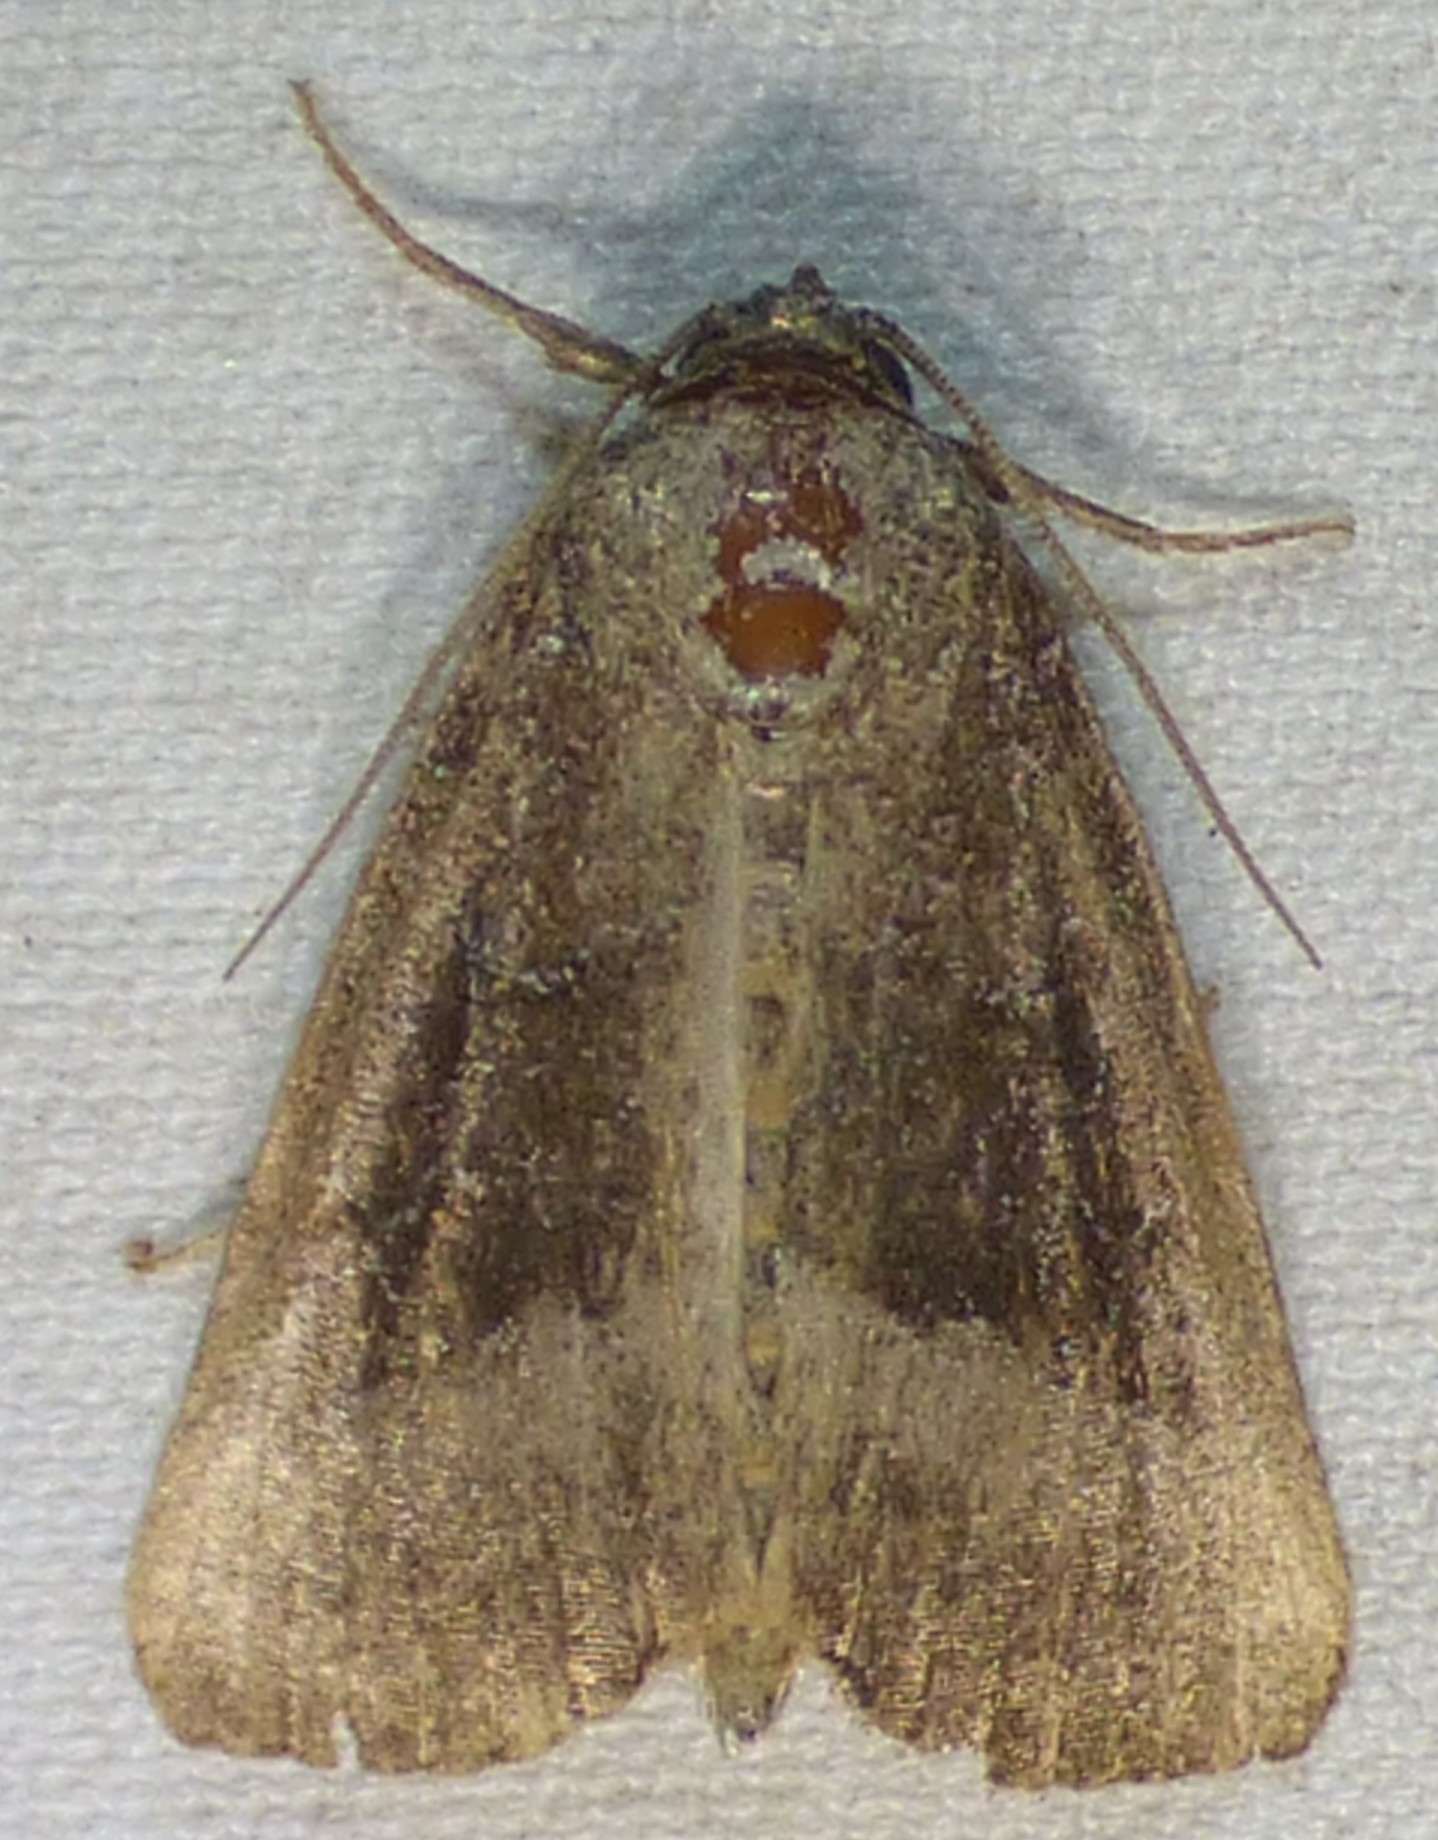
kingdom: Animalia
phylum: Arthropoda
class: Insecta
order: Lepidoptera
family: Noctuidae
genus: Ogdoconta
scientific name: Ogdoconta cinereola
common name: Common pinkband
